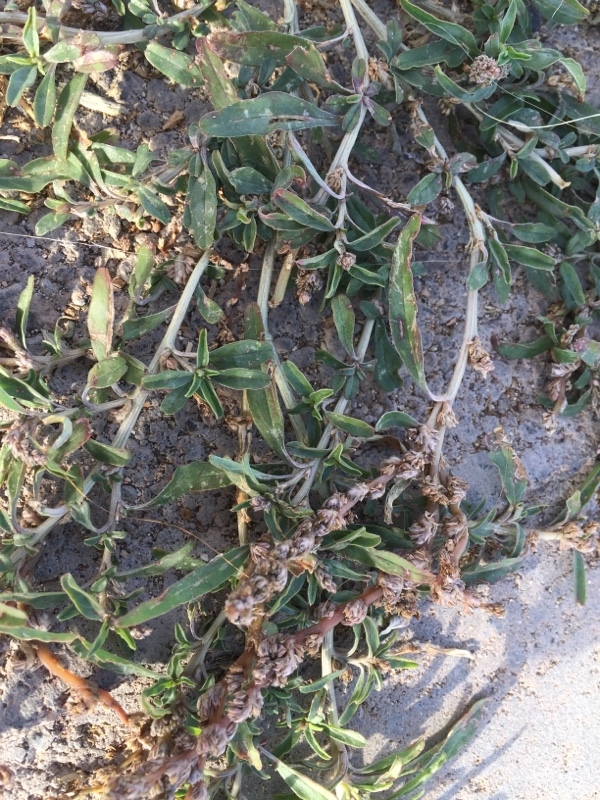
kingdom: Plantae
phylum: Tracheophyta
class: Magnoliopsida
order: Caryophyllales
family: Amaranthaceae
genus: Amaranthus
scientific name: Amaranthus muricatus
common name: African amaranth
